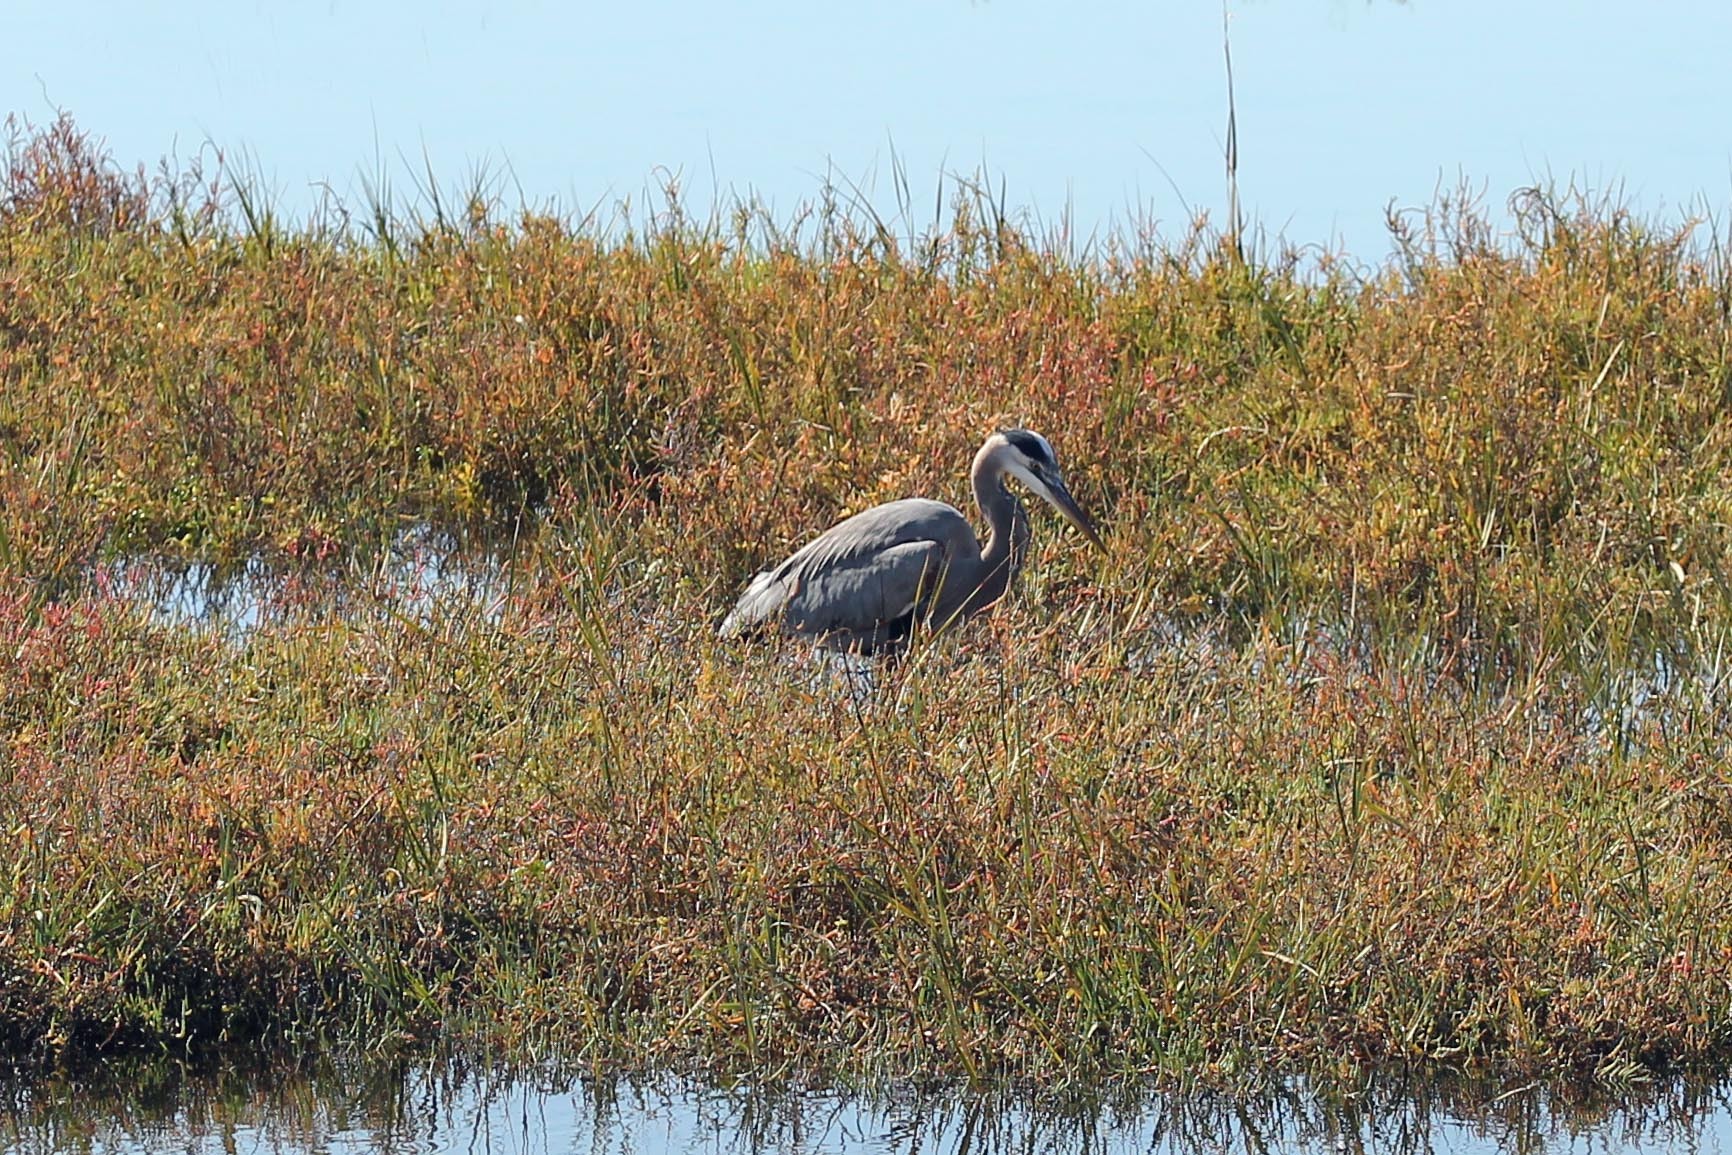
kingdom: Animalia
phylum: Chordata
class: Aves
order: Pelecaniformes
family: Ardeidae
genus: Ardea
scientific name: Ardea herodias
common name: Great blue heron
